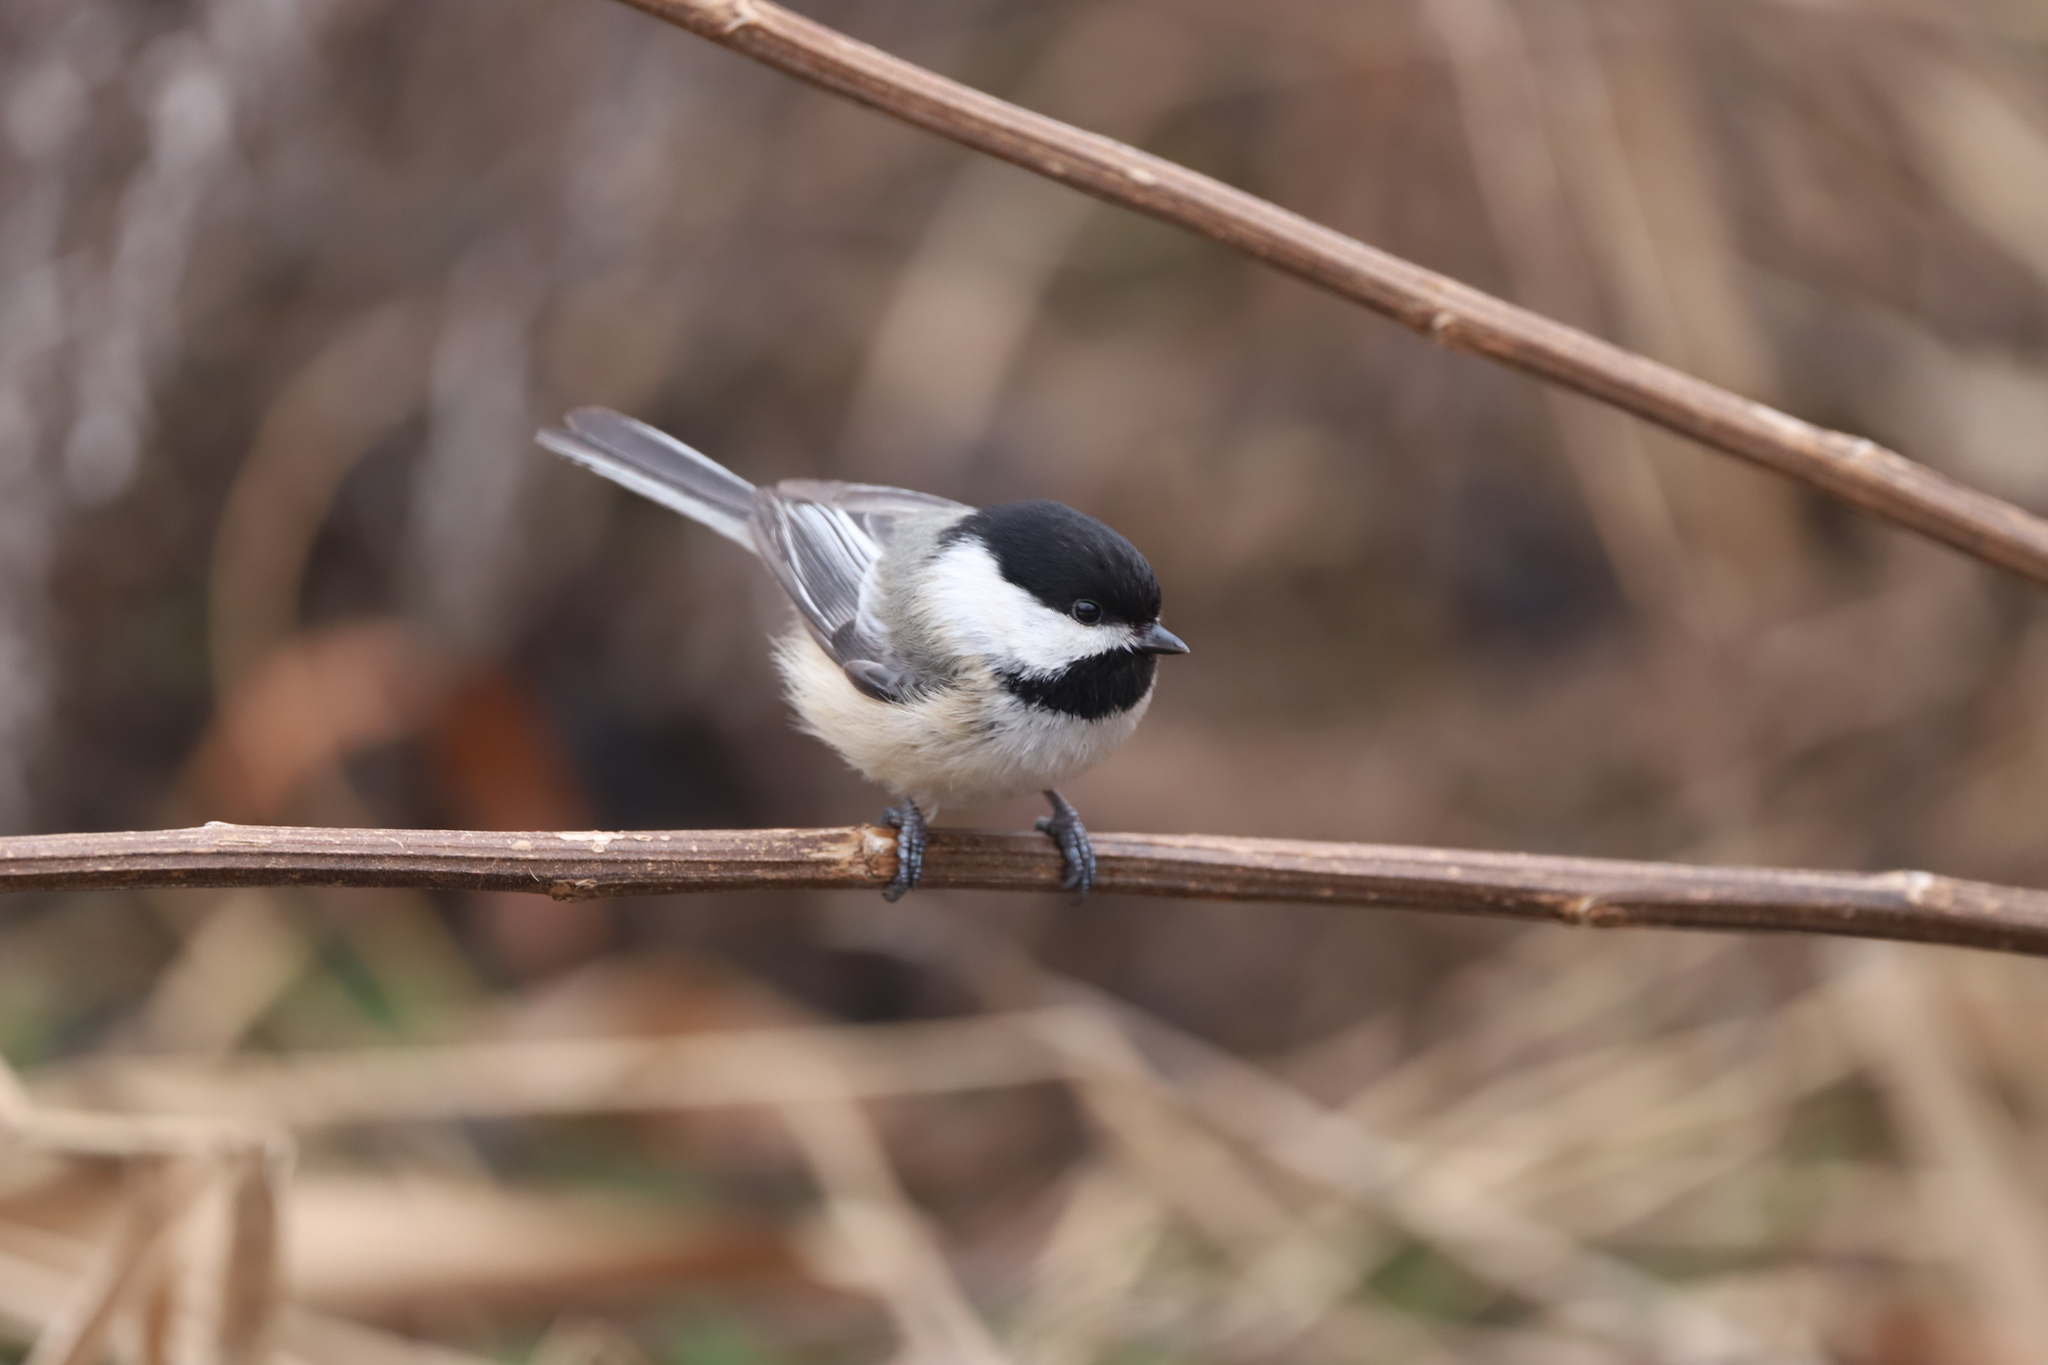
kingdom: Animalia
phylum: Chordata
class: Aves
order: Passeriformes
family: Paridae
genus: Poecile
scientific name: Poecile atricapillus
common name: Black-capped chickadee
